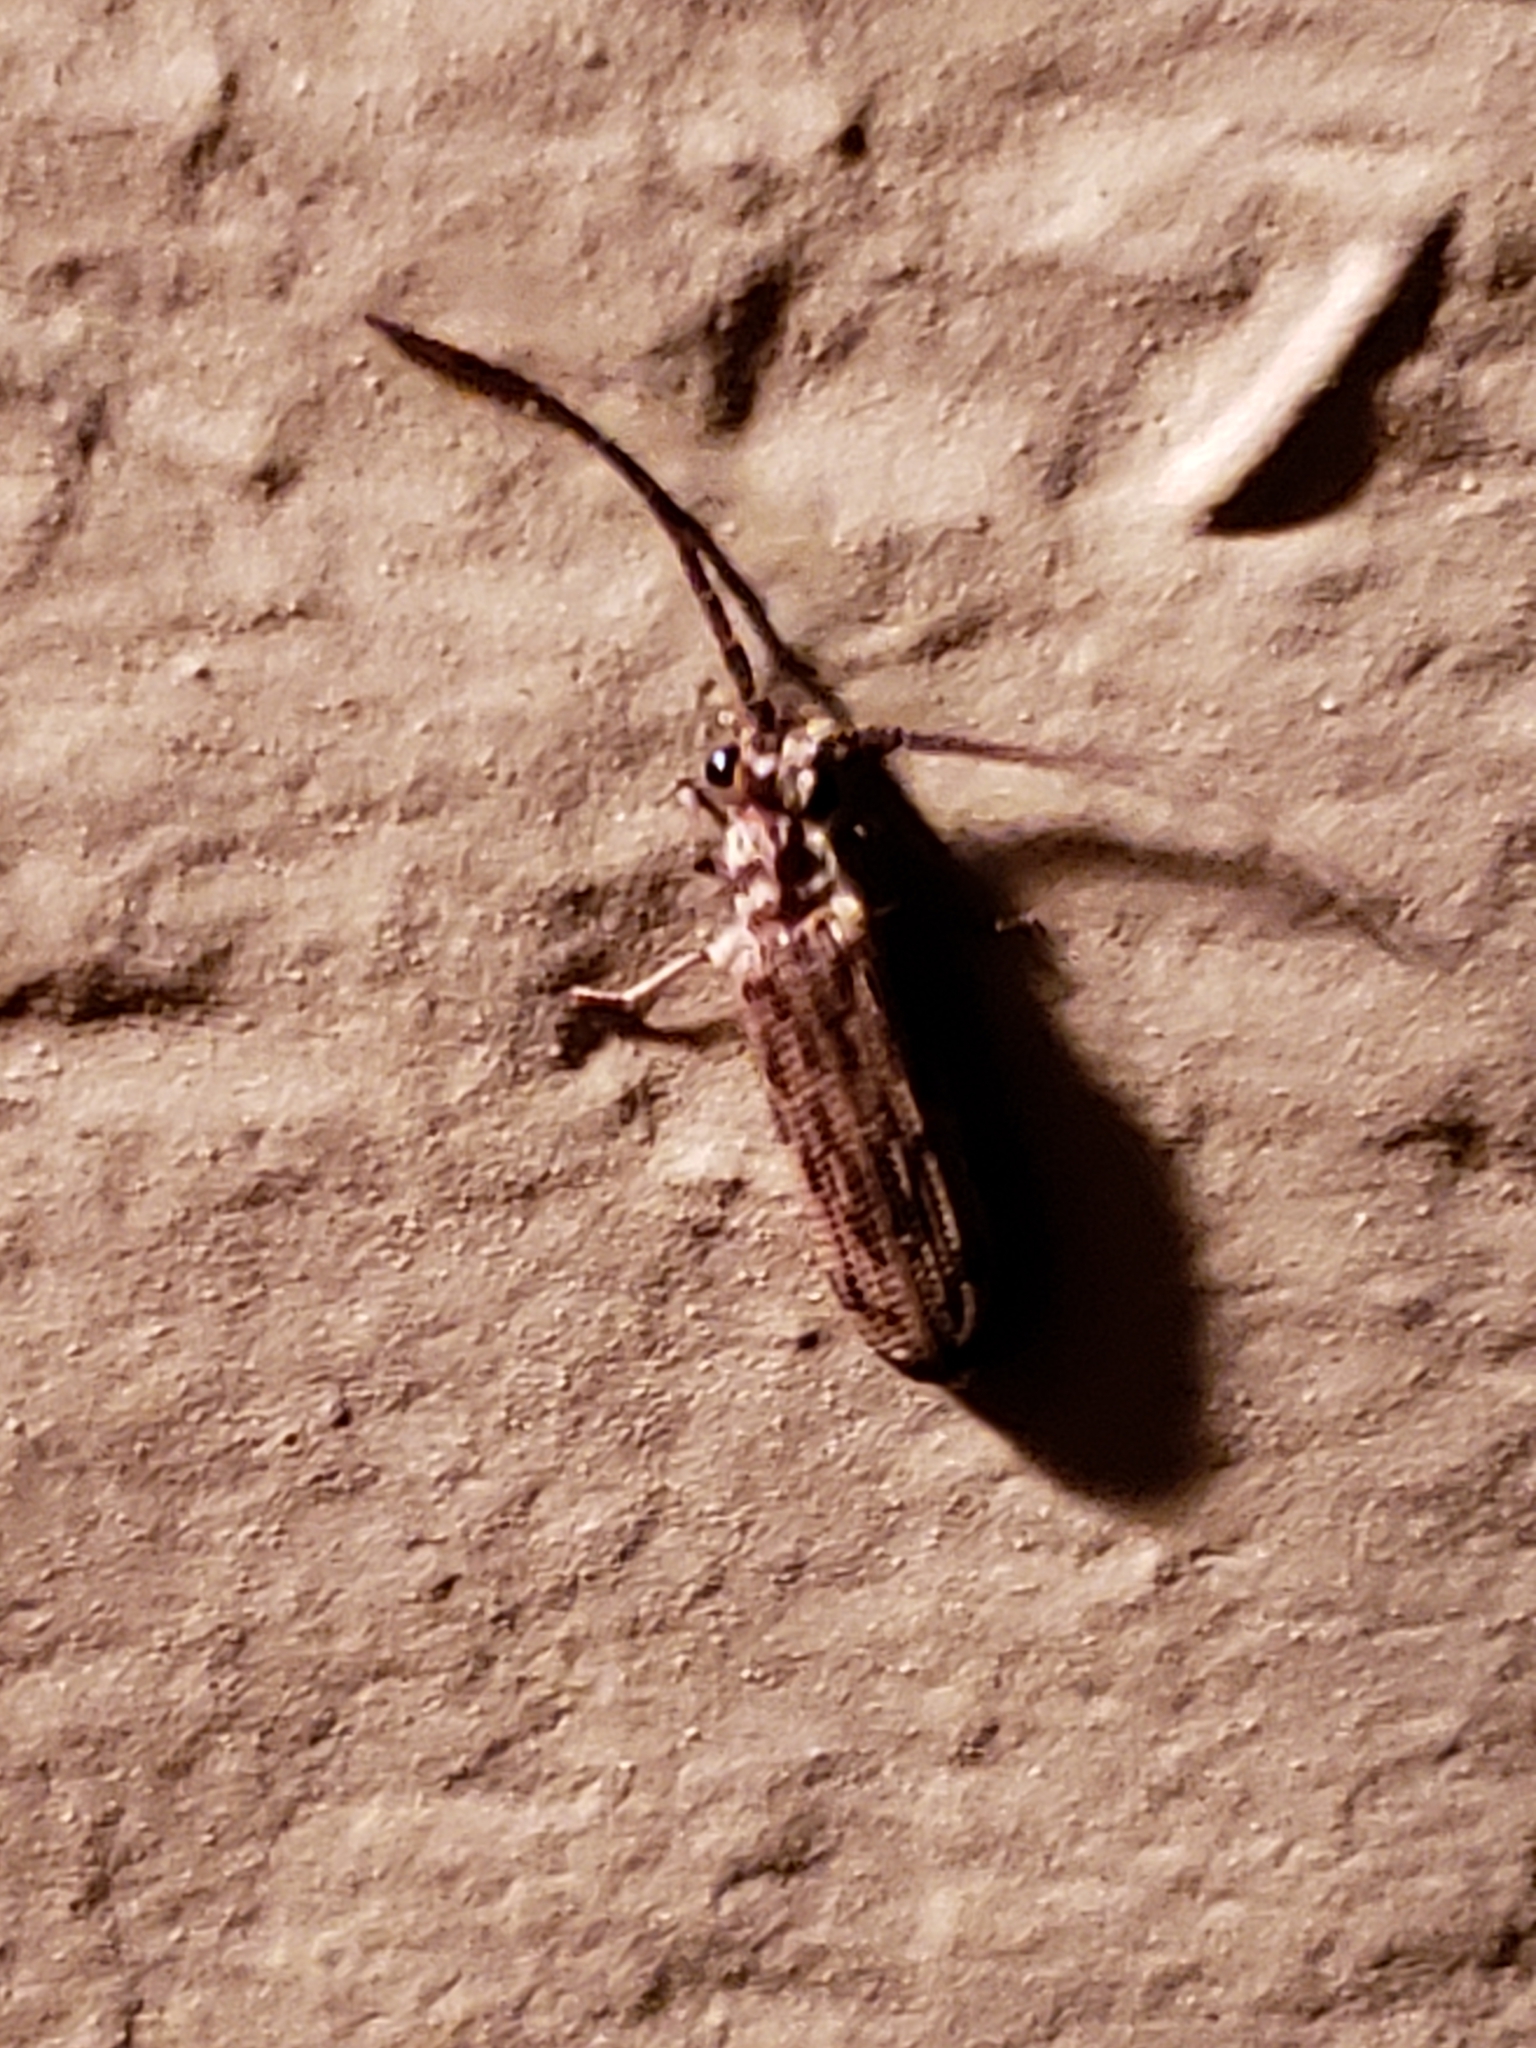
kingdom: Animalia
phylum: Arthropoda
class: Insecta
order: Coleoptera
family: Cupedidae
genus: Tenomerga
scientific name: Tenomerga cinerea
